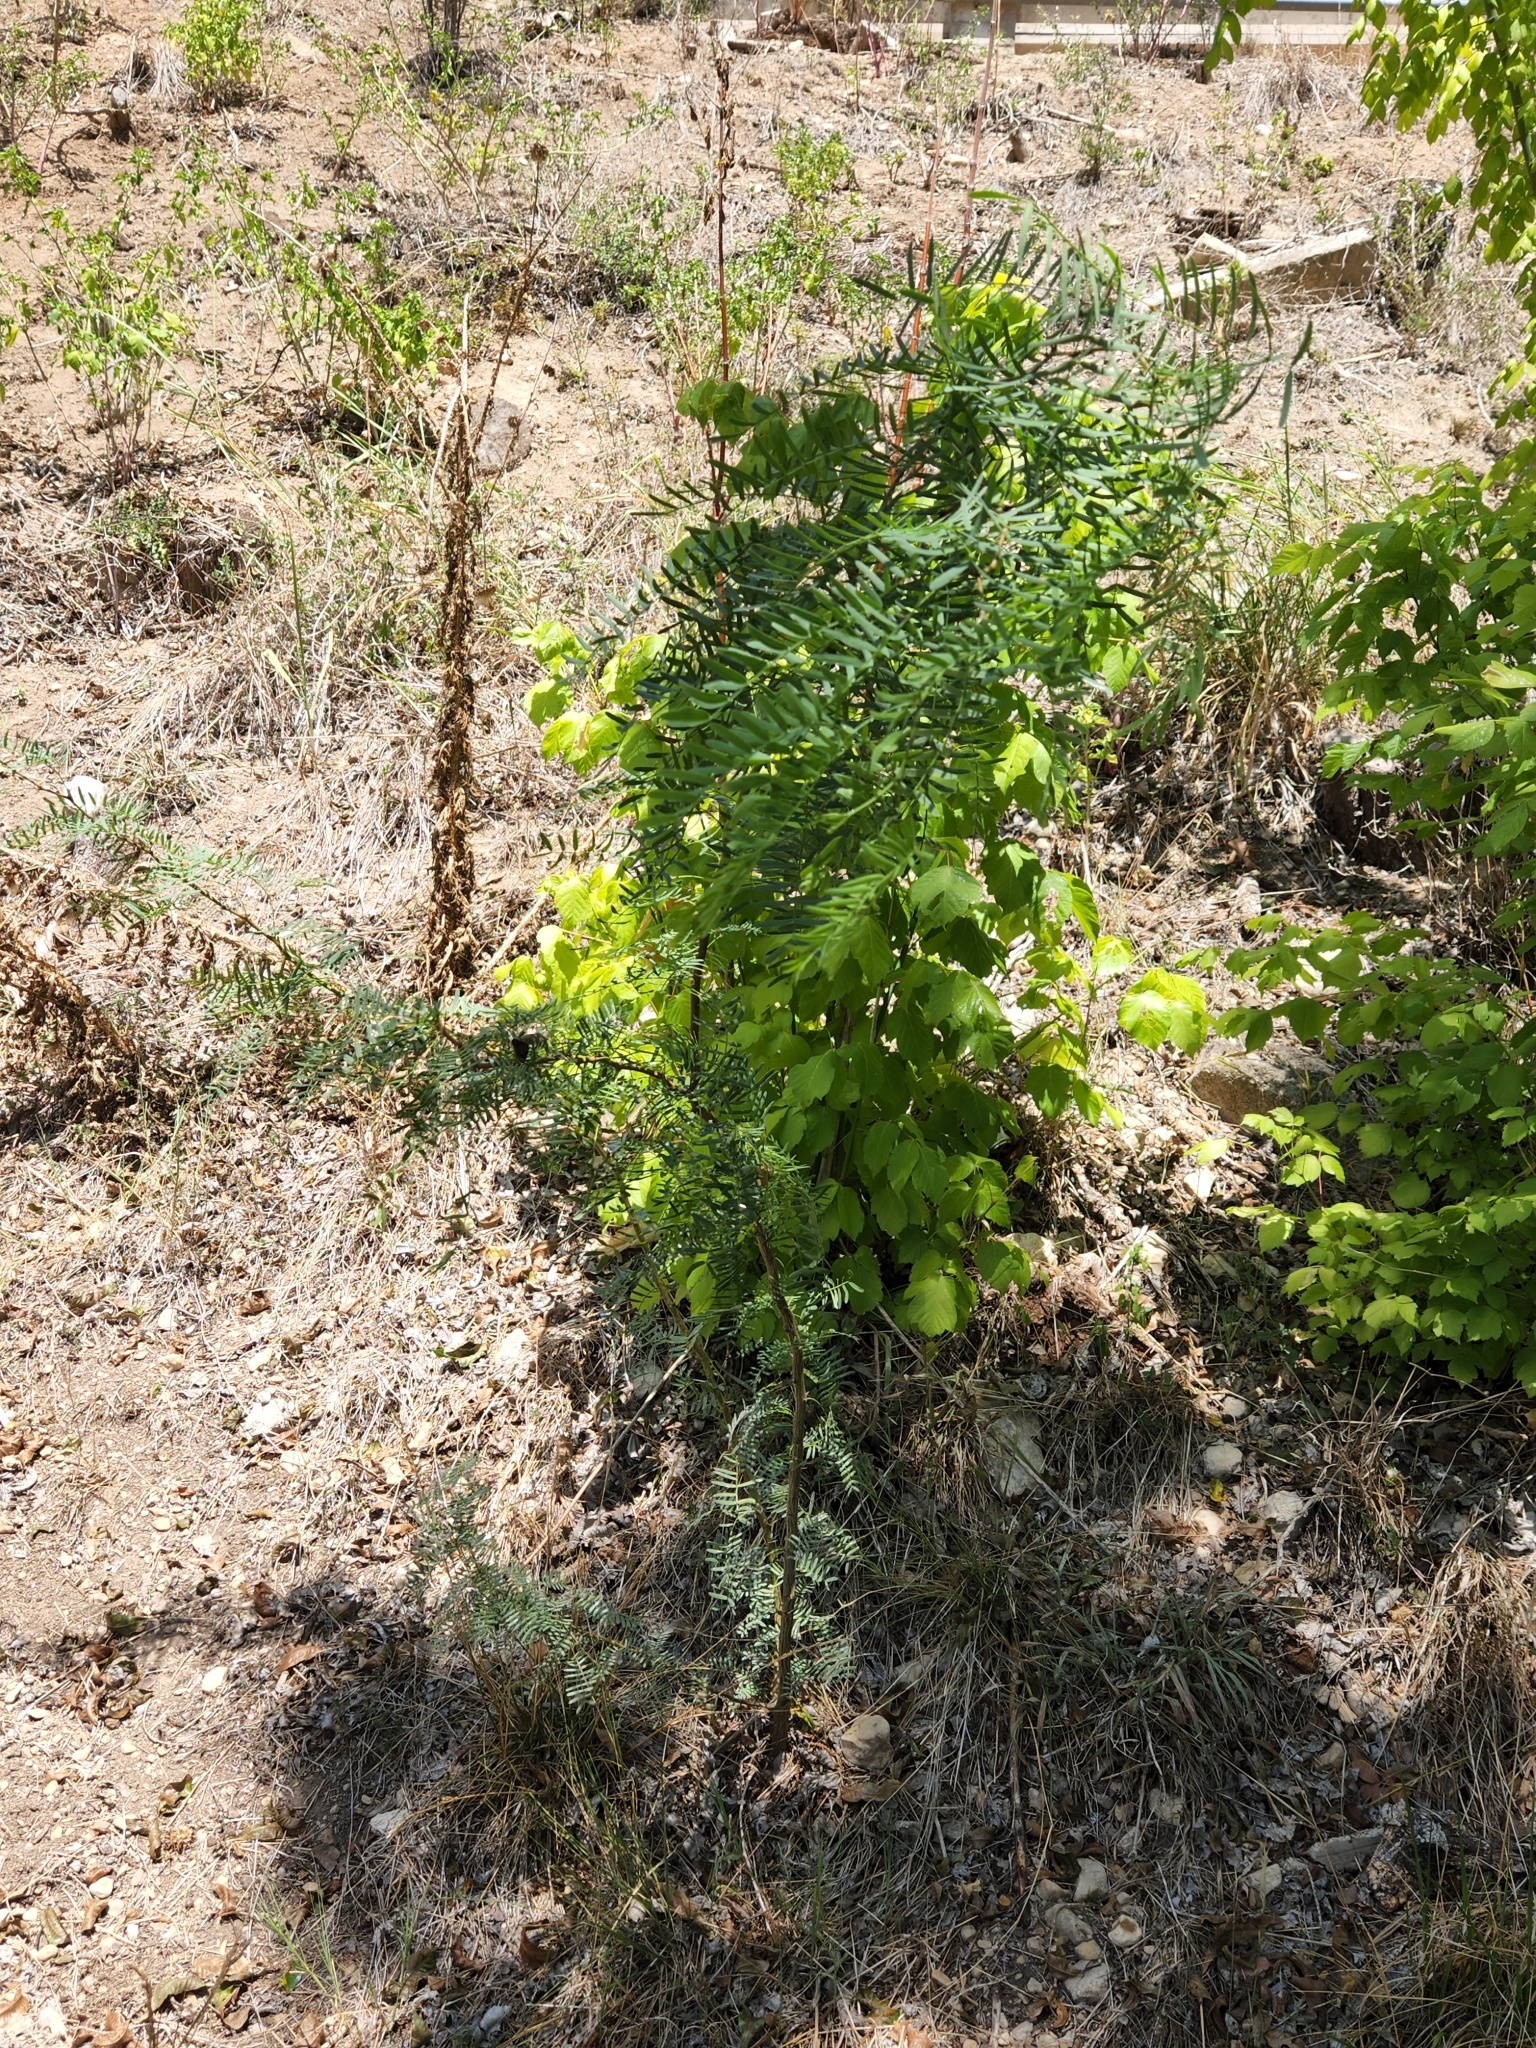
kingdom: Plantae
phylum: Tracheophyta
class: Magnoliopsida
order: Fabales
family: Fabaceae
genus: Prosopis
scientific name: Prosopis glandulosa
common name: Honey mesquite
